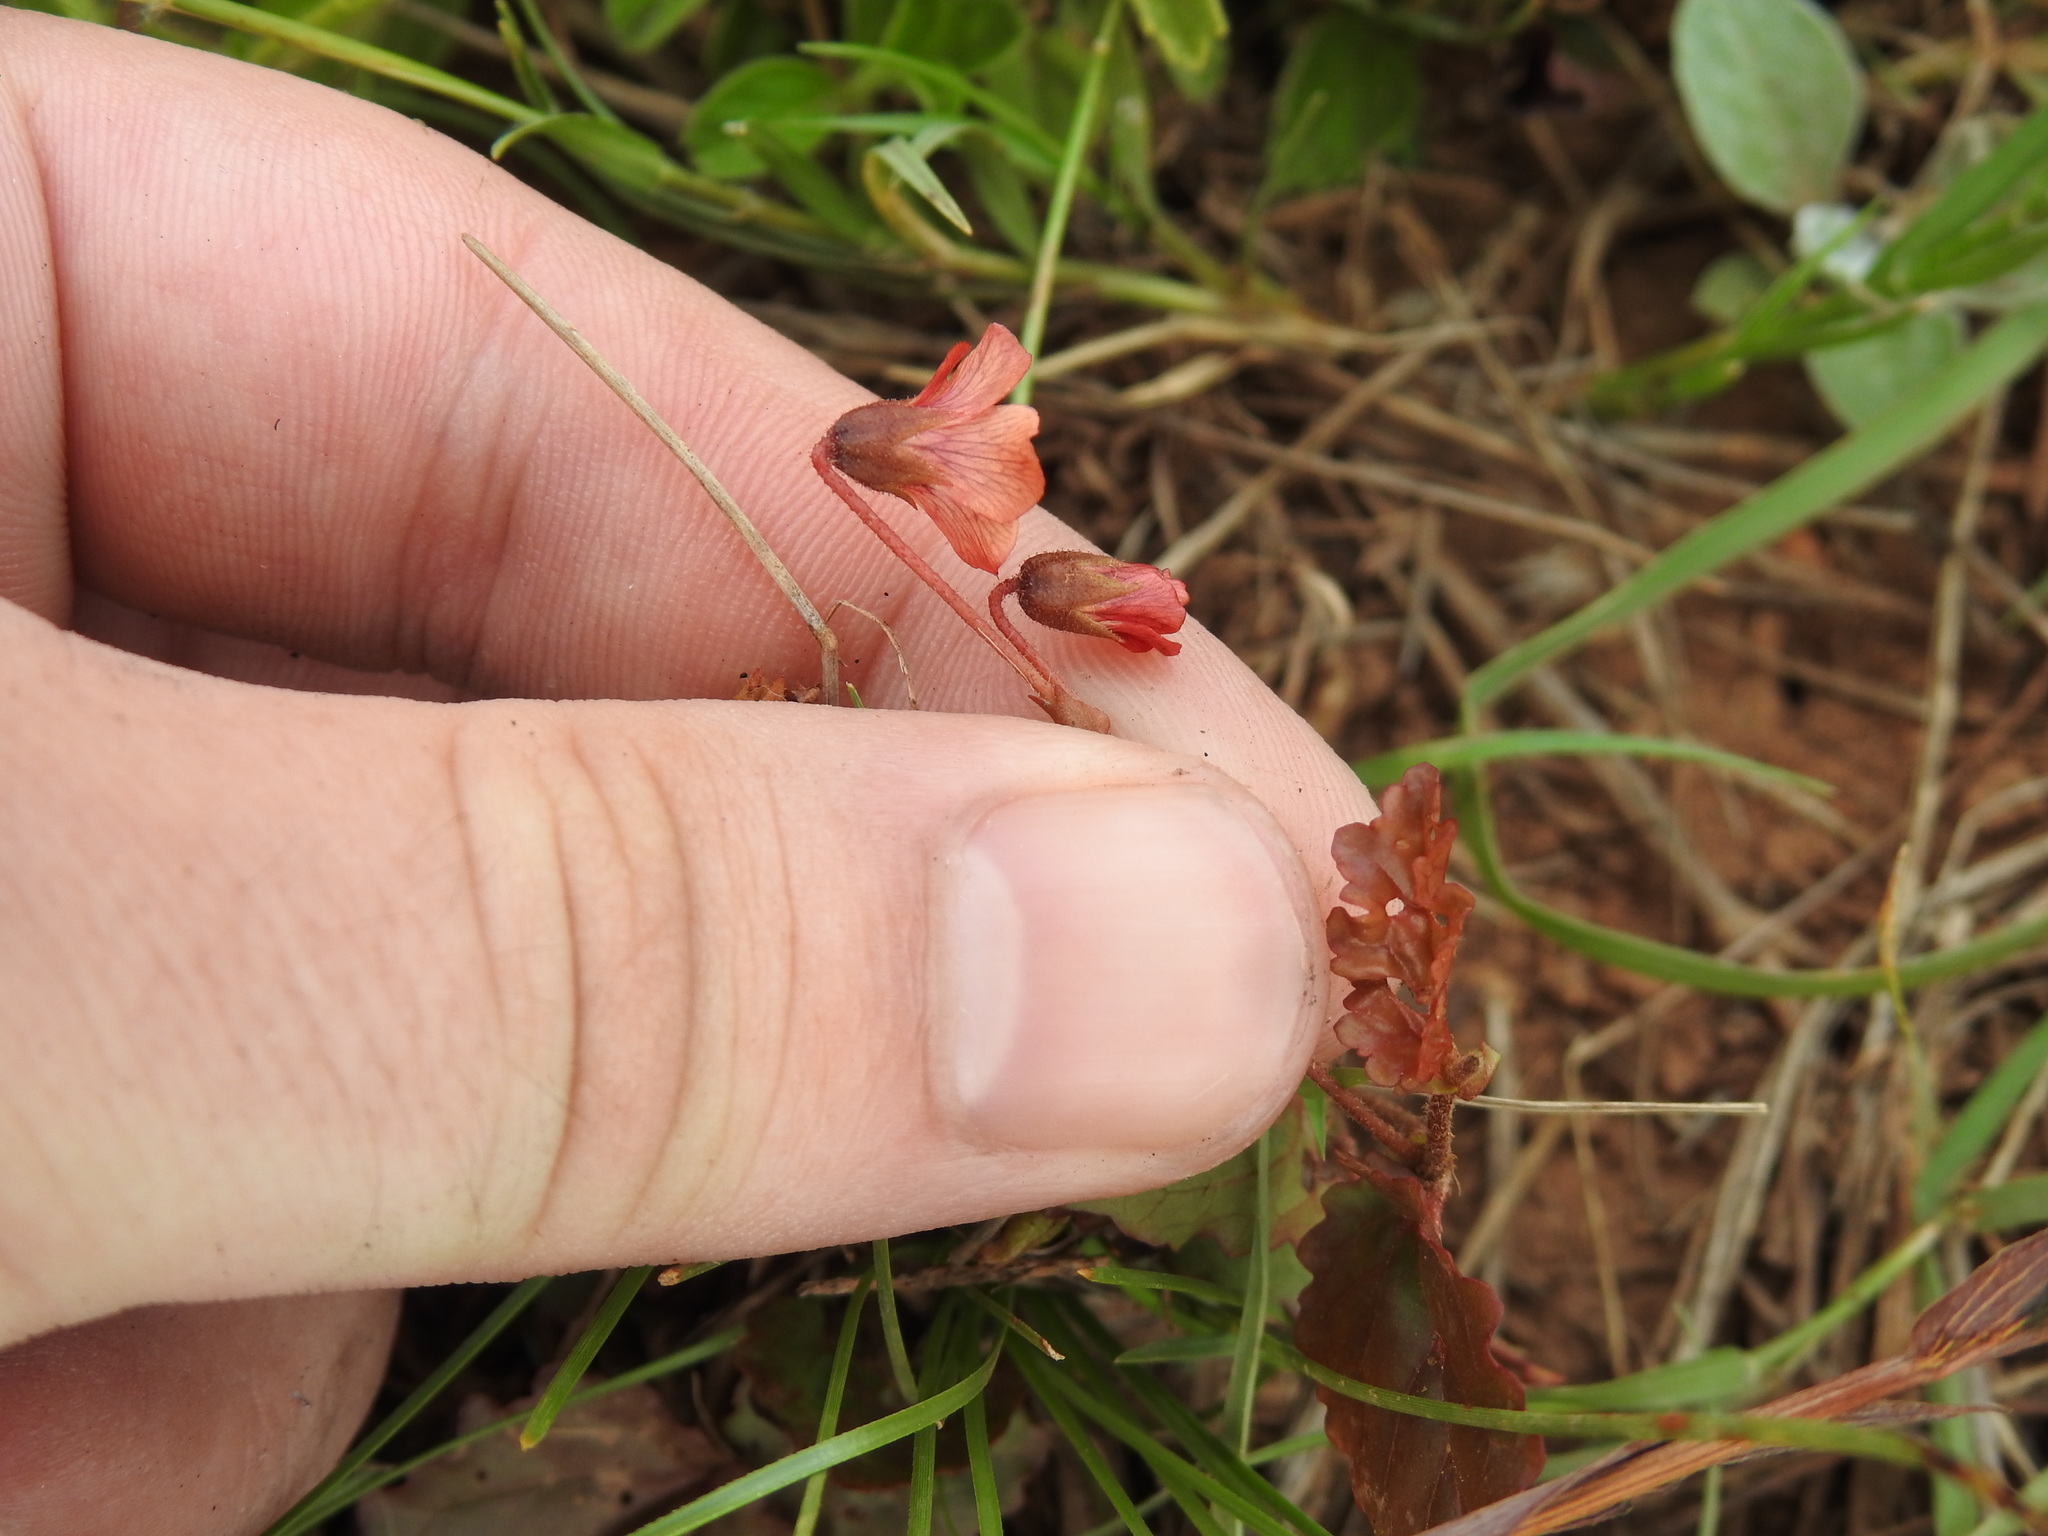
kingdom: Plantae
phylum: Tracheophyta
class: Magnoliopsida
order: Malvales
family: Malvaceae
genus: Hermannia
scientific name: Hermannia depressa
